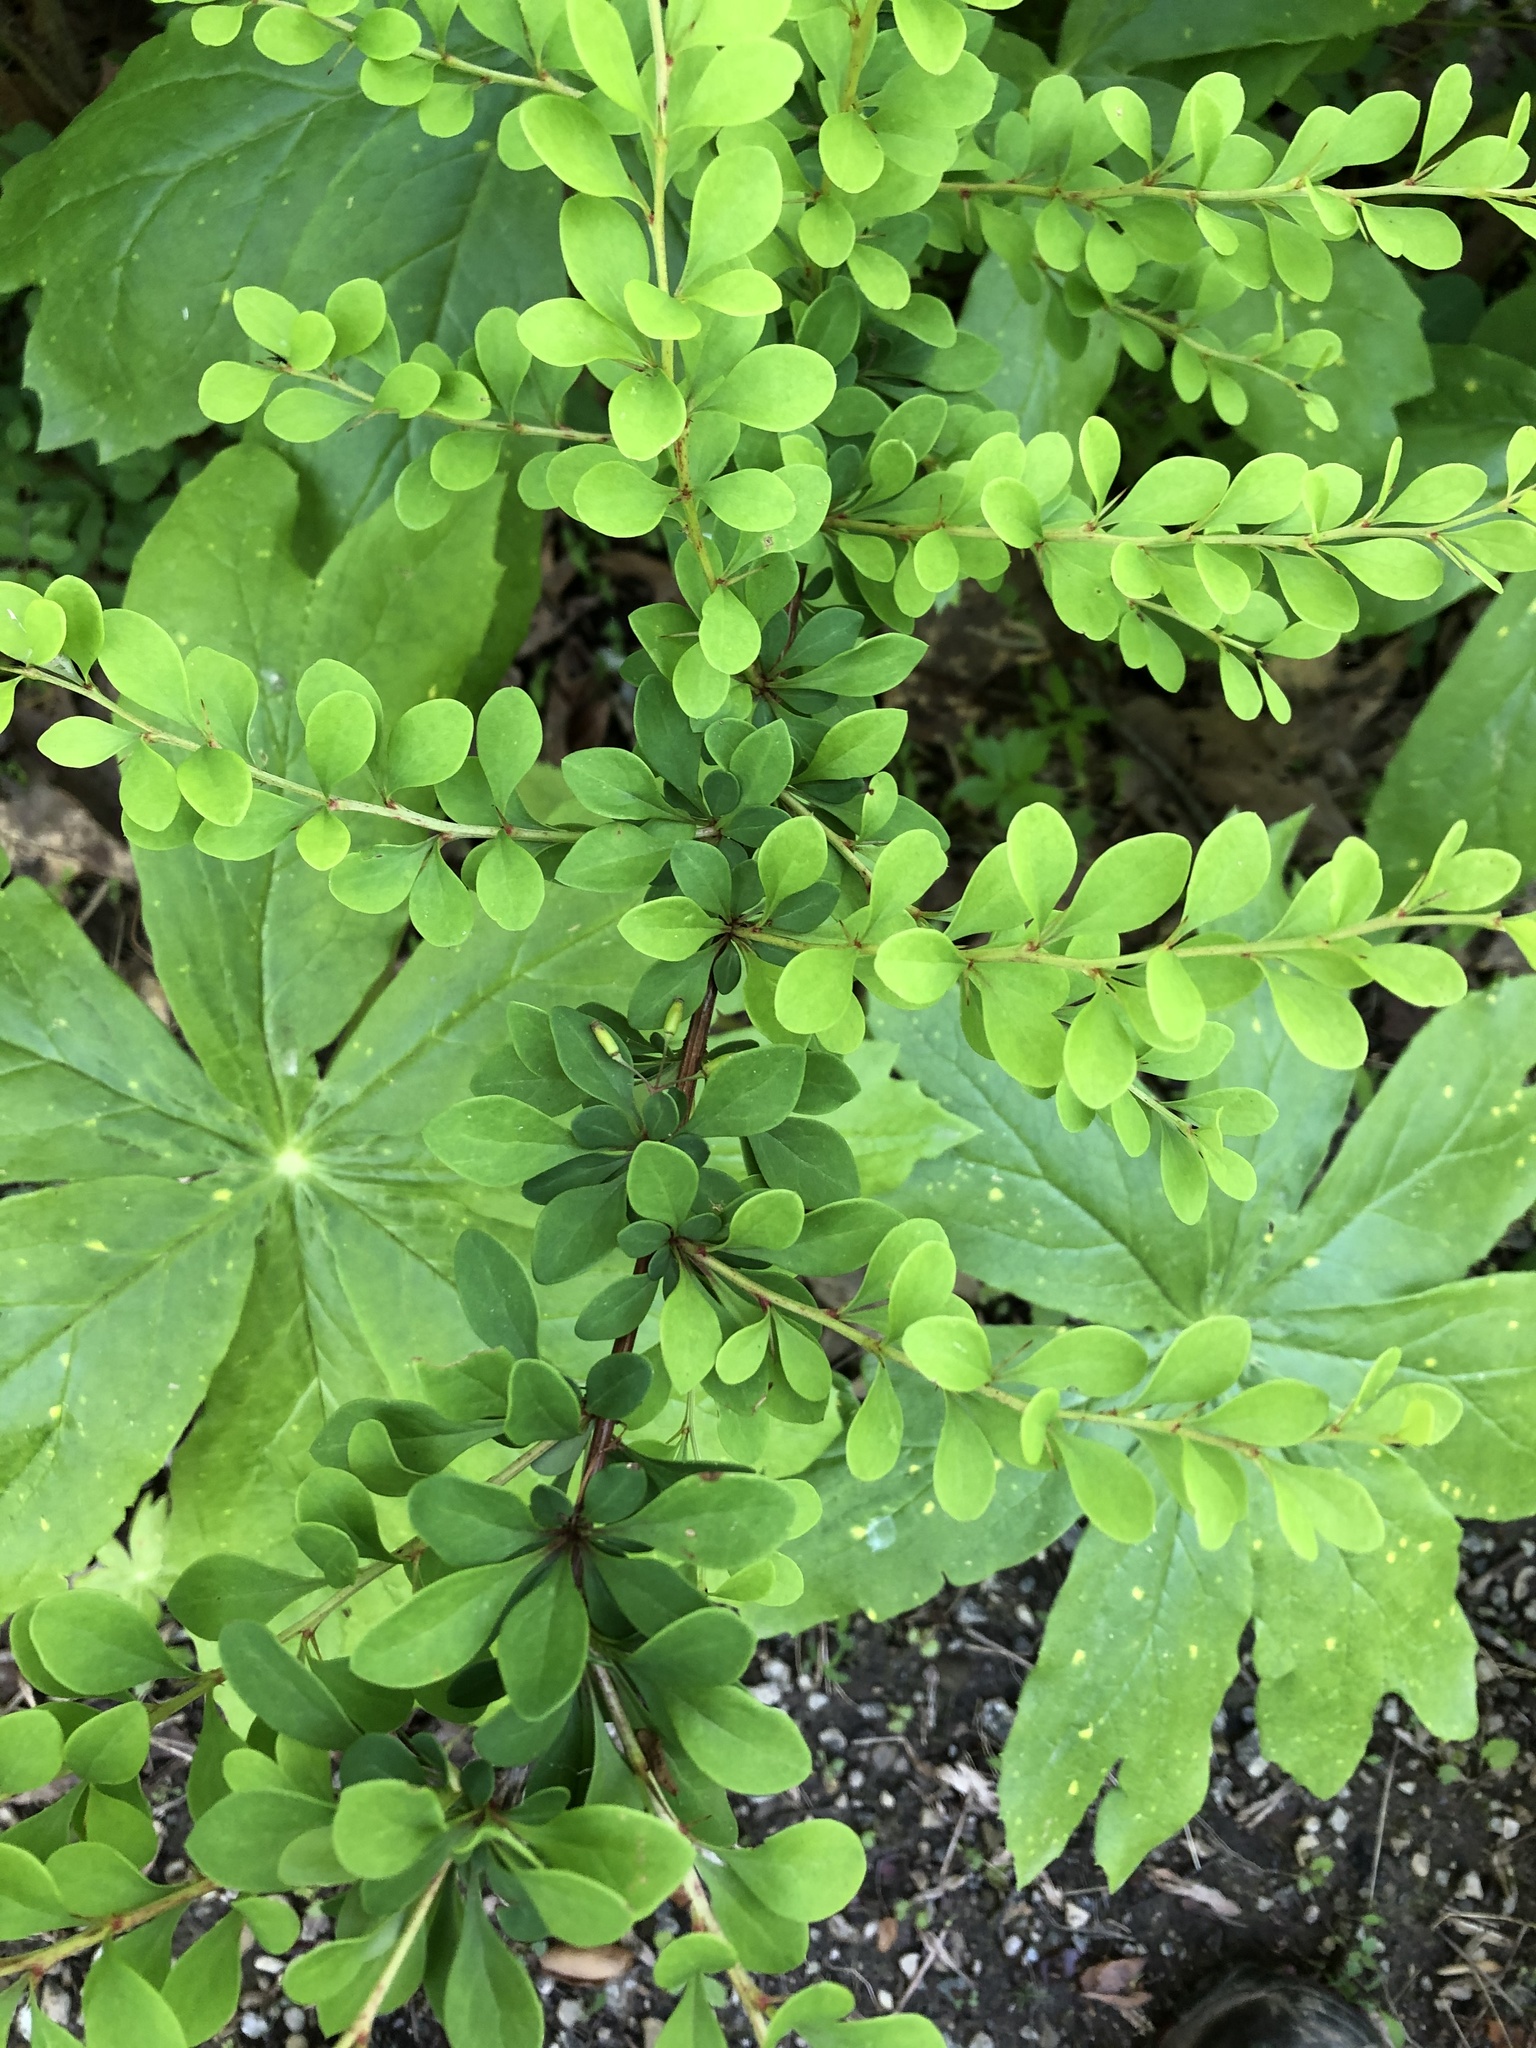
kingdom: Plantae
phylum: Tracheophyta
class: Magnoliopsida
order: Ranunculales
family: Berberidaceae
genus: Berberis
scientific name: Berberis thunbergii
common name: Japanese barberry
